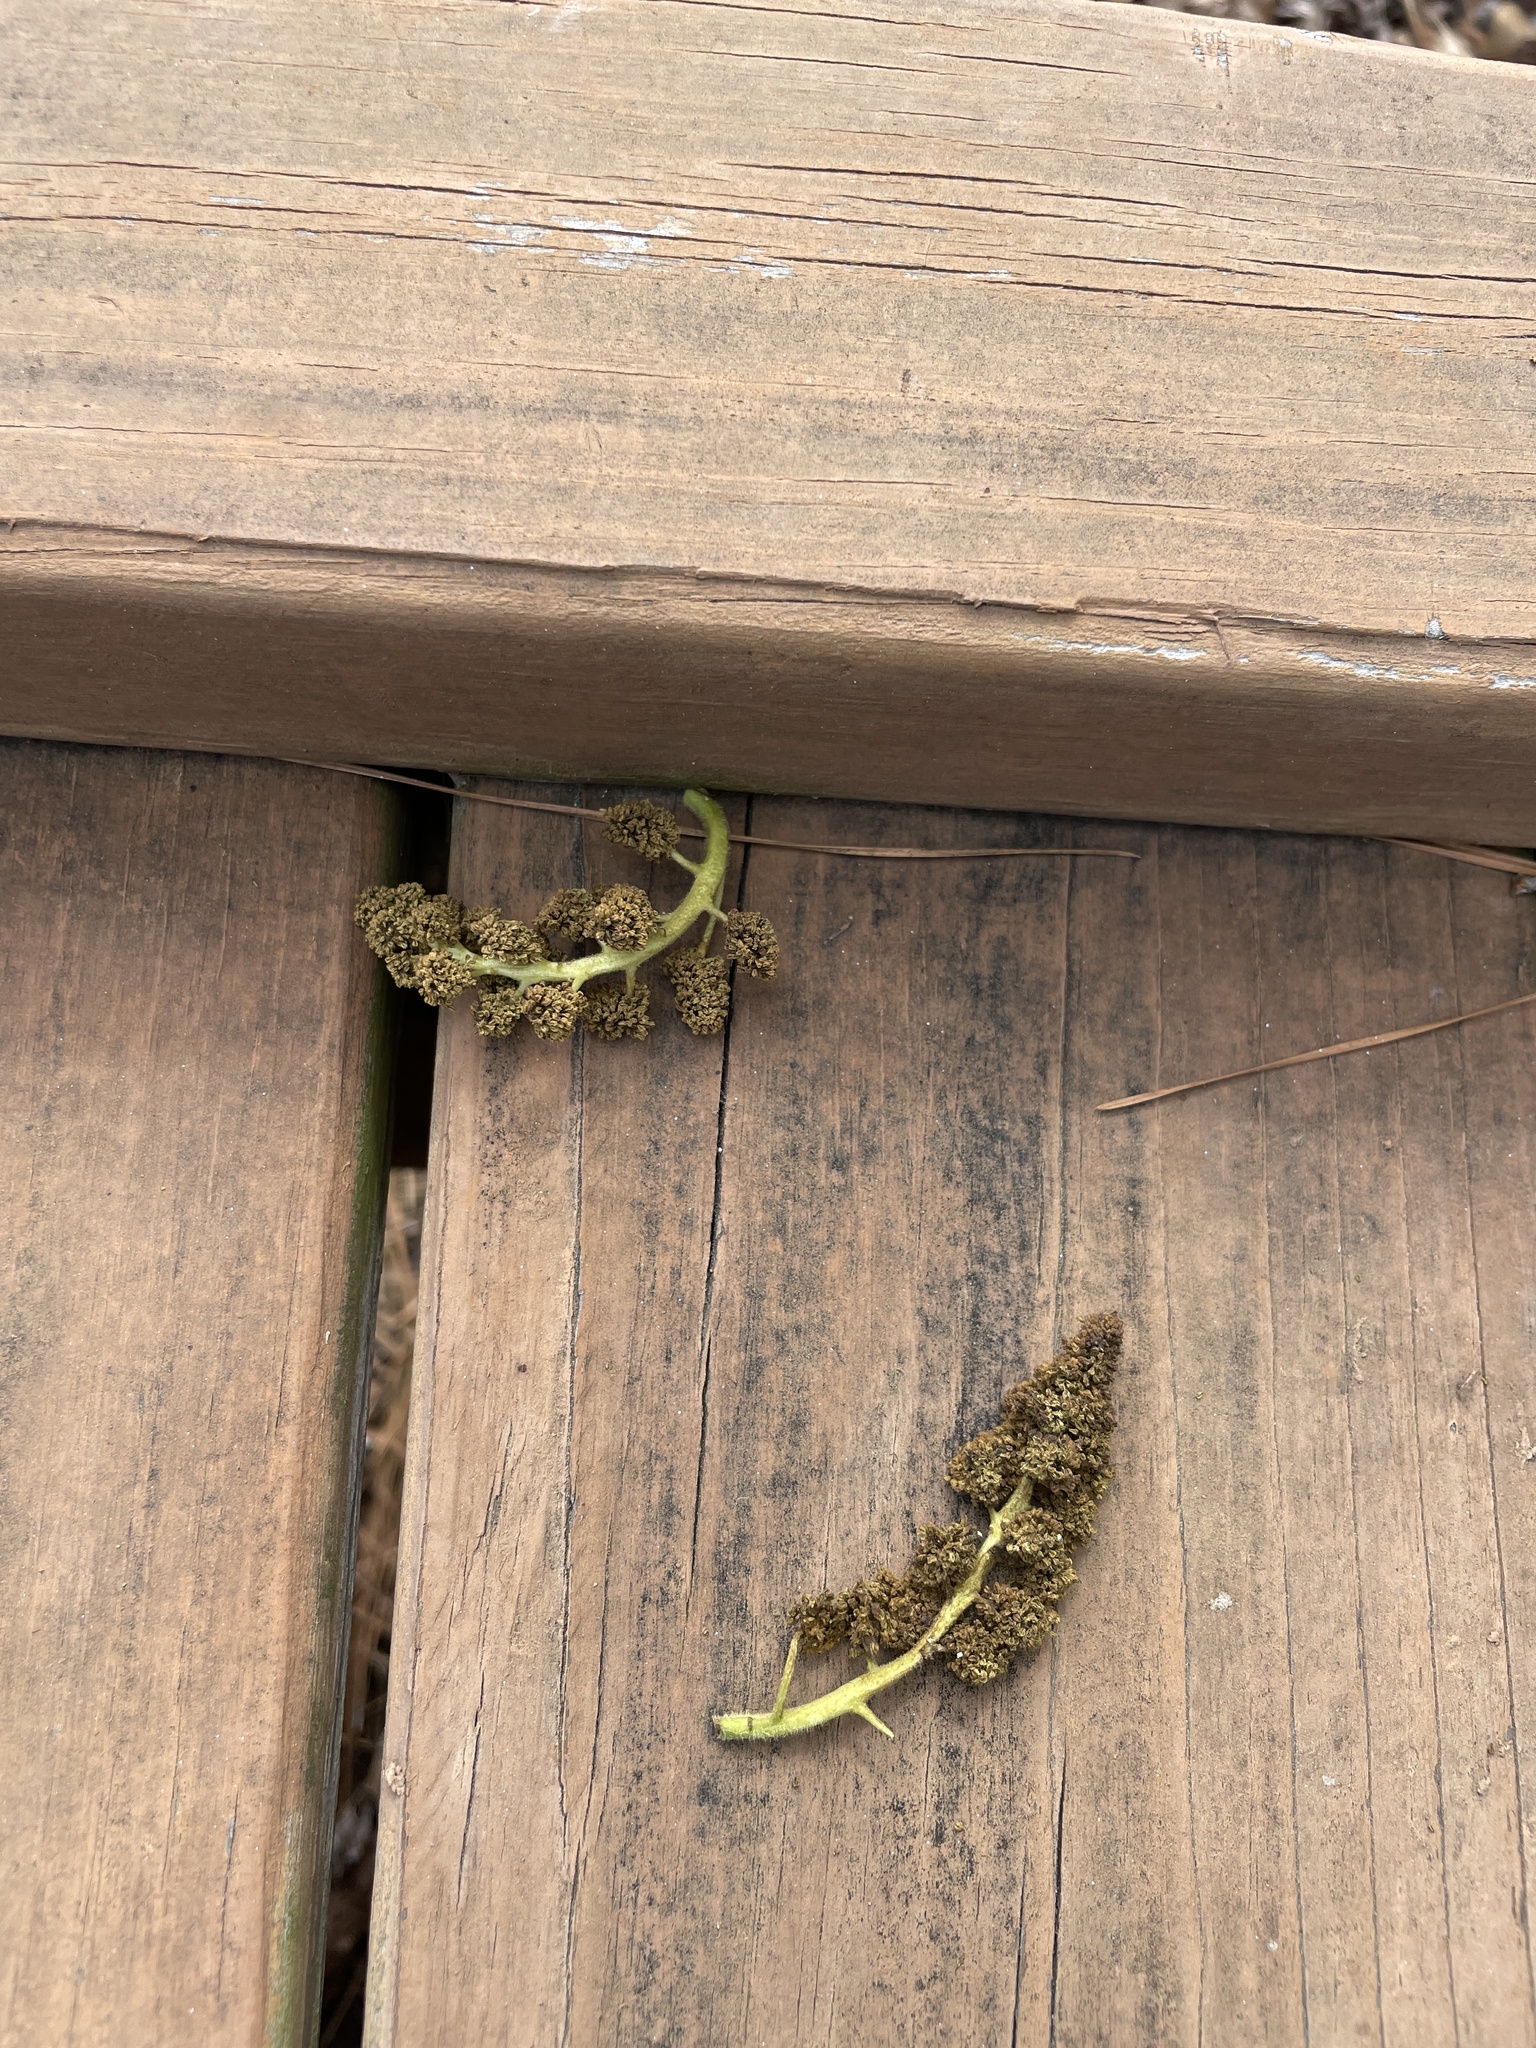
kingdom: Plantae
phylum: Tracheophyta
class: Magnoliopsida
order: Saxifragales
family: Altingiaceae
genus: Liquidambar
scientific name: Liquidambar styraciflua
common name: Sweet gum
